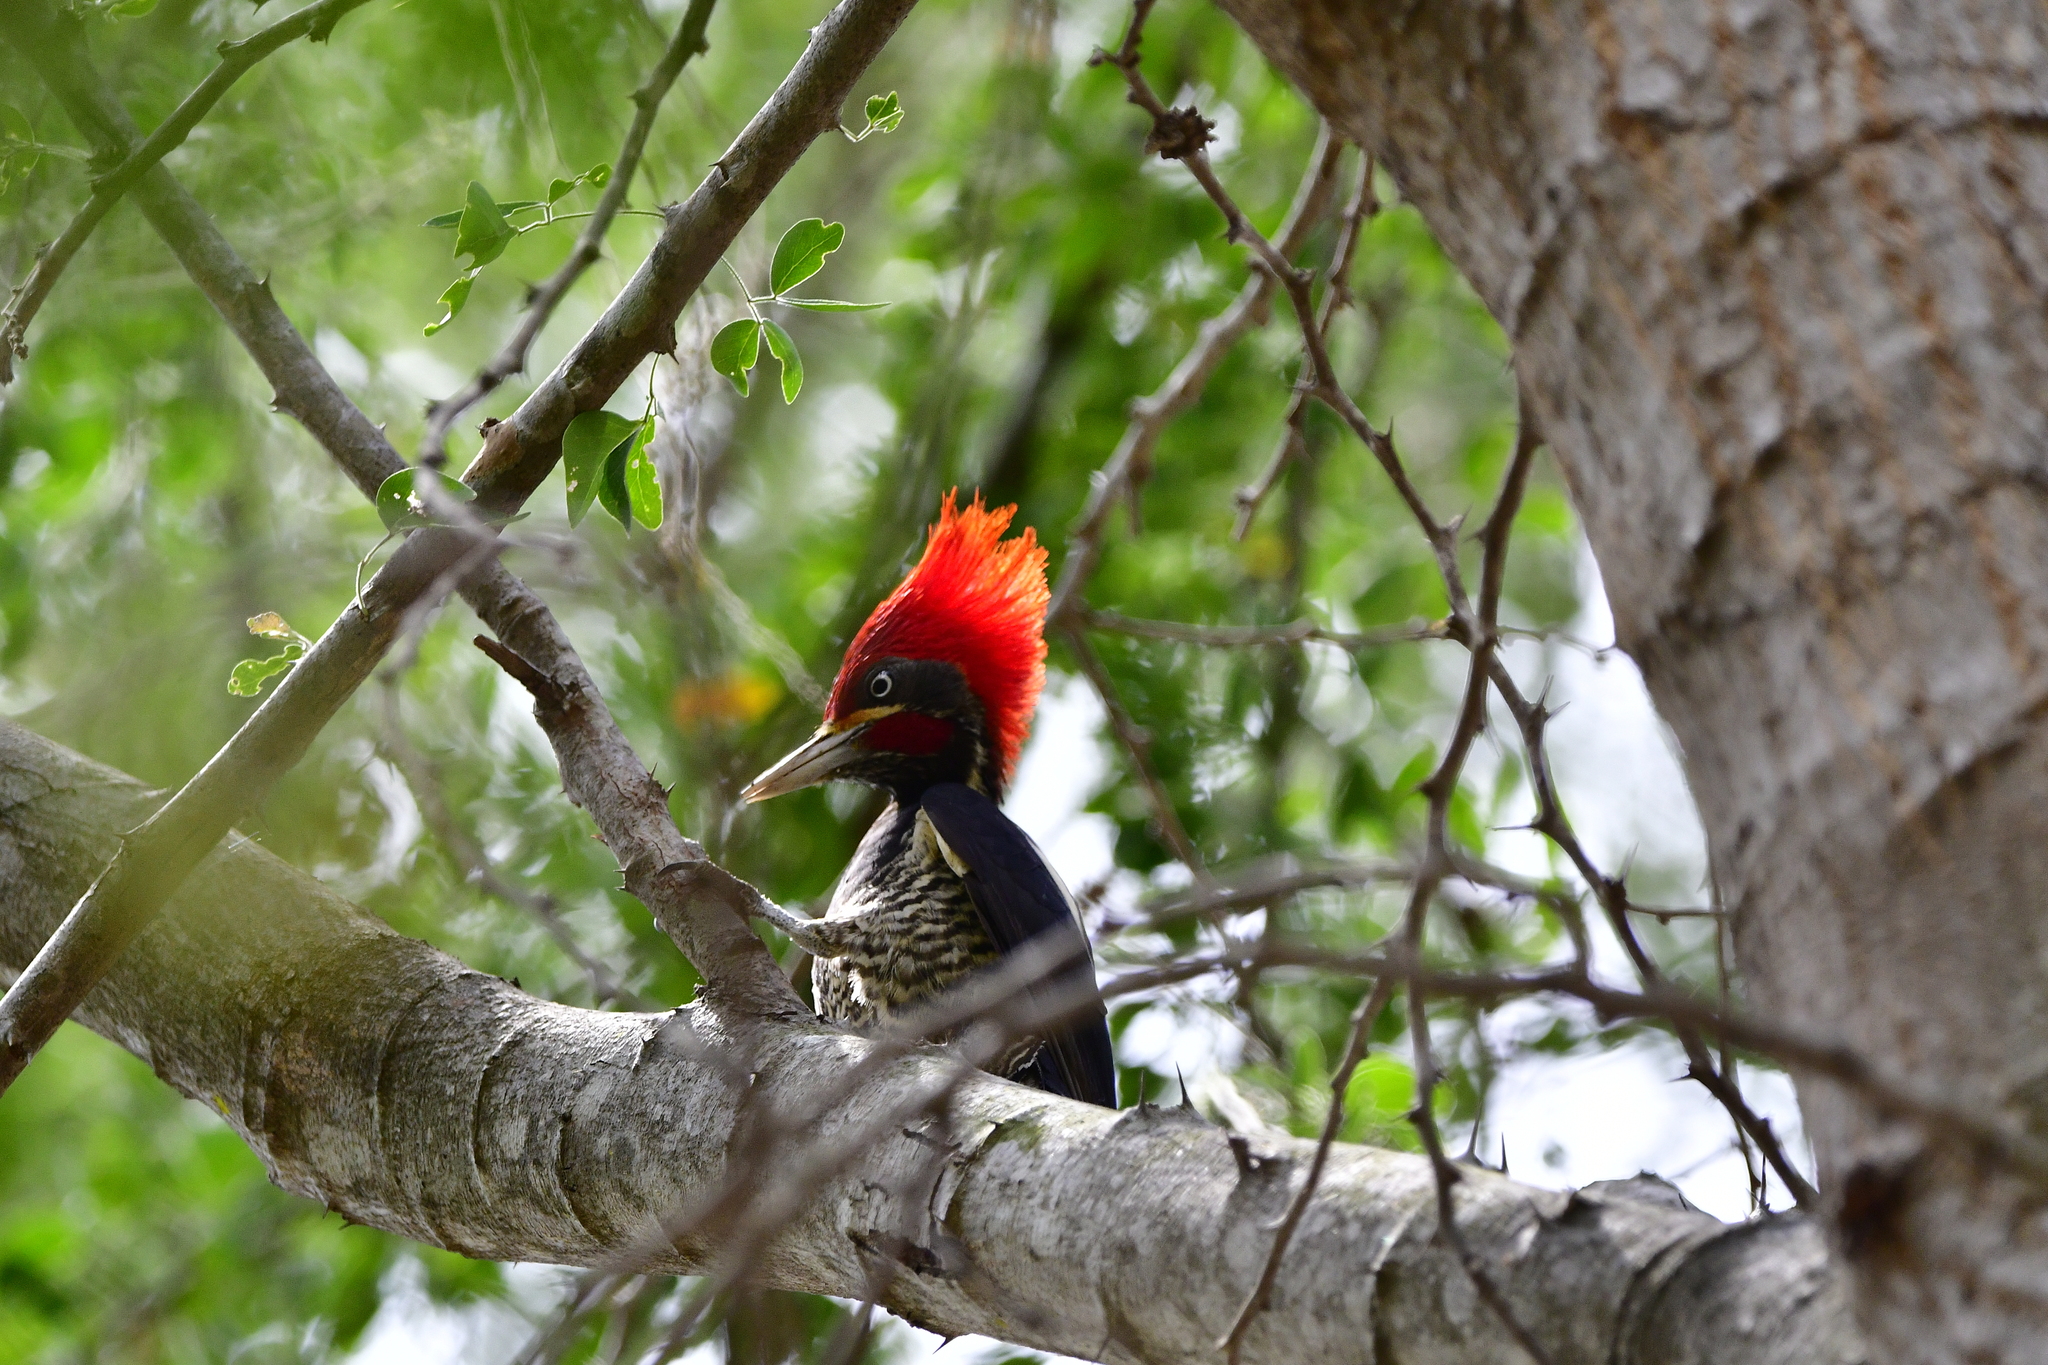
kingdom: Animalia
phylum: Chordata
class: Aves
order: Piciformes
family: Picidae
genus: Dryocopus
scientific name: Dryocopus lineatus
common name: Lineated woodpecker
